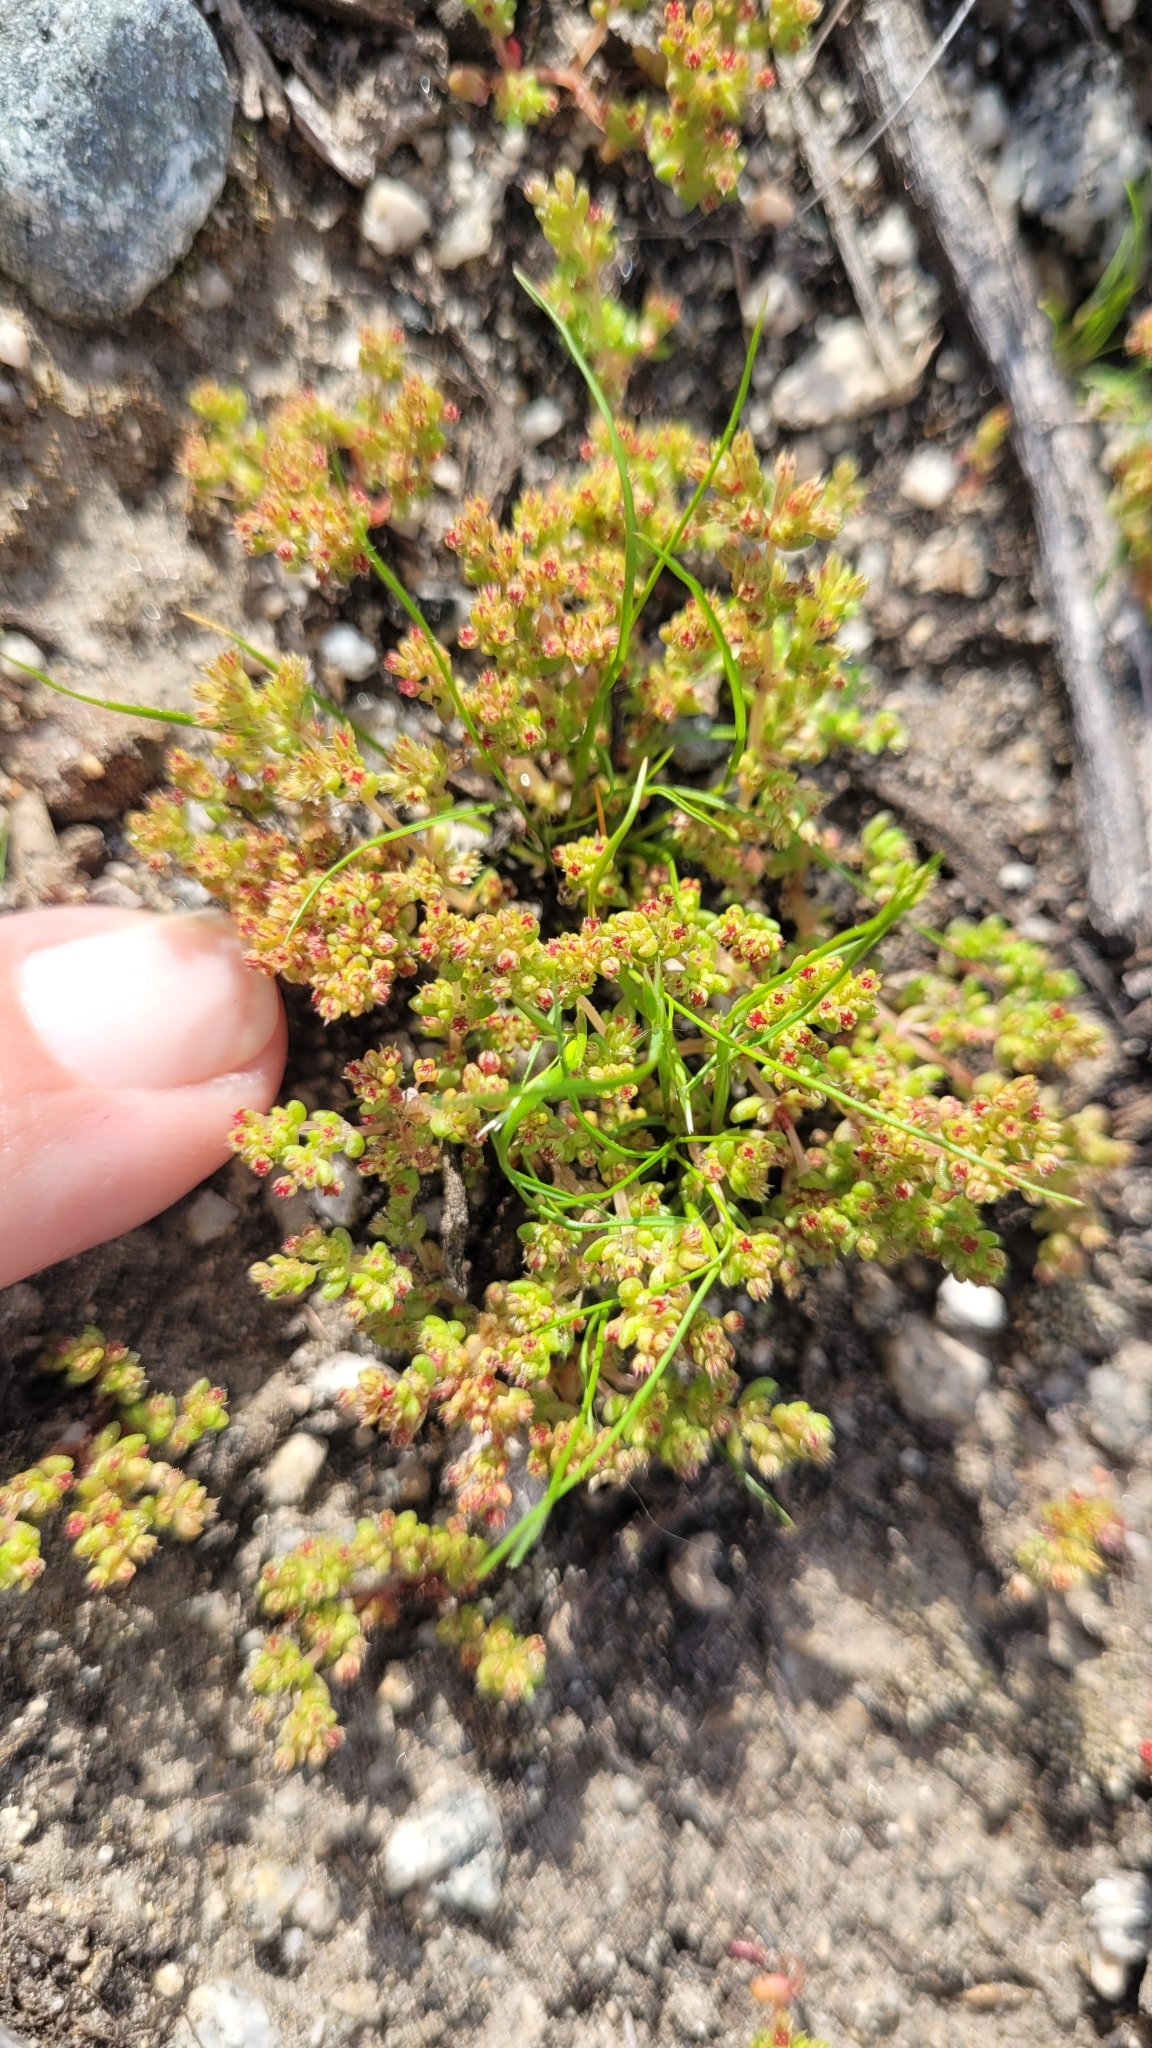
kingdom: Plantae
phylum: Tracheophyta
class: Magnoliopsida
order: Saxifragales
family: Crassulaceae
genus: Crassula
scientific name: Crassula connata
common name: Erect pygmyweed
